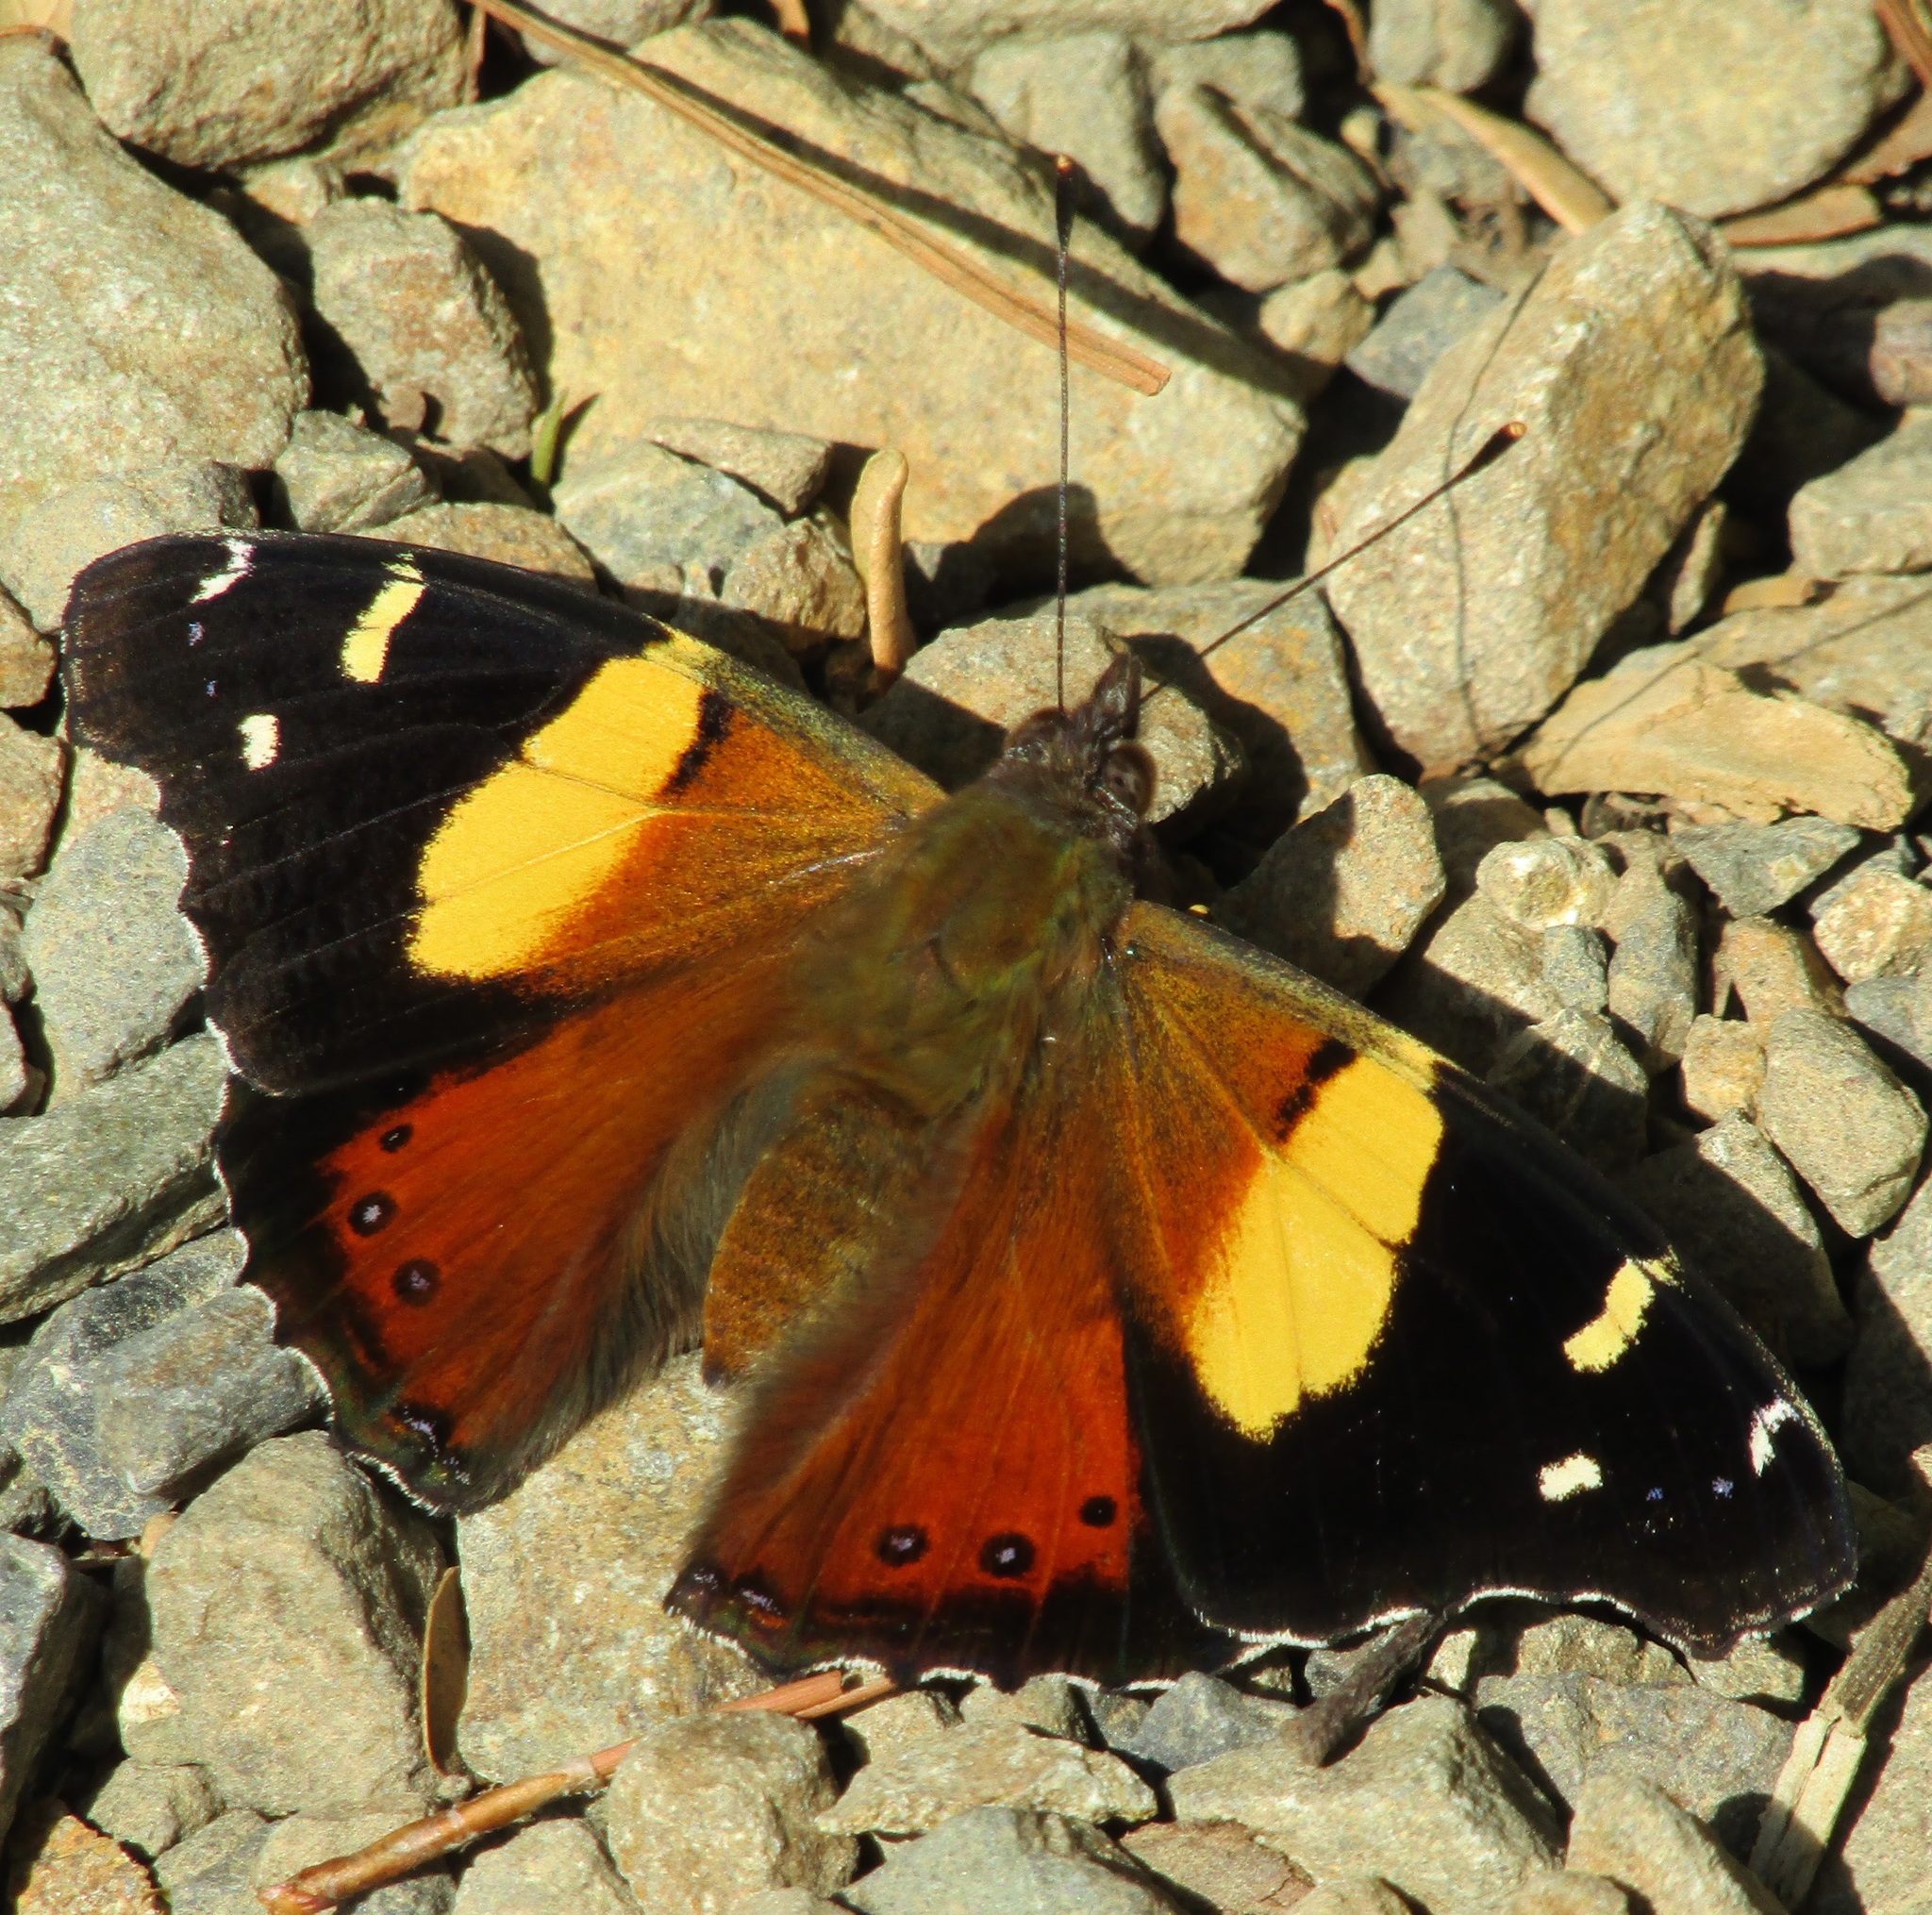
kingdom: Animalia
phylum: Arthropoda
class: Insecta
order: Lepidoptera
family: Nymphalidae
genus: Vanessa
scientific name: Vanessa itea
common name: Yellow admiral
